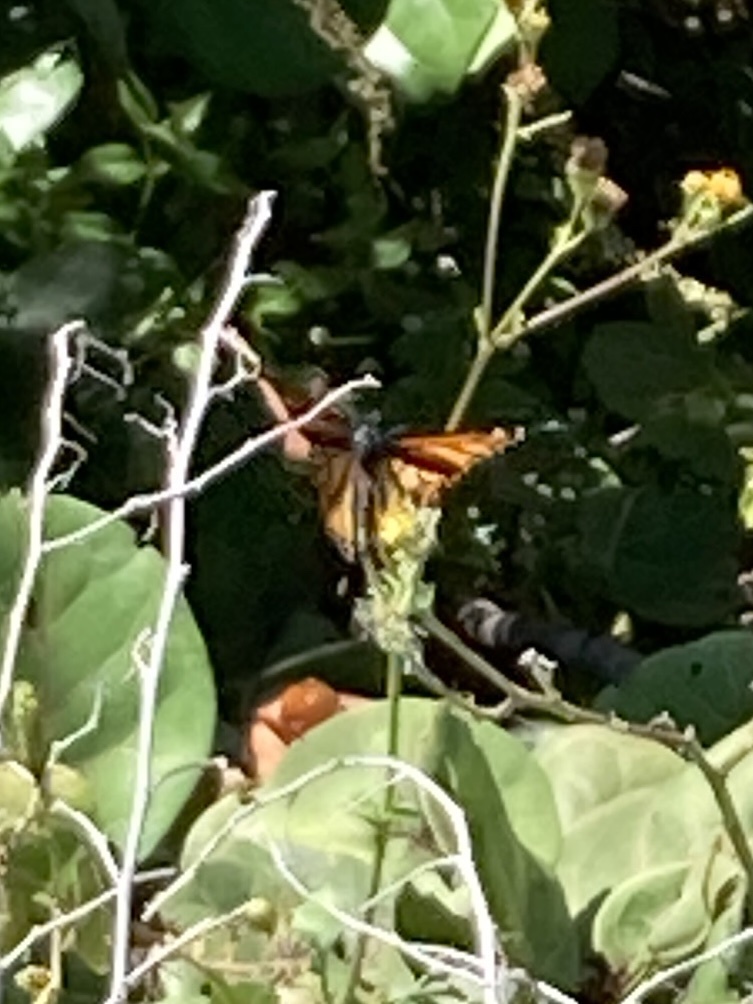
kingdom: Animalia
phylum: Arthropoda
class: Insecta
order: Lepidoptera
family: Nymphalidae
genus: Danaus
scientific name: Danaus plexippus
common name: Monarch
